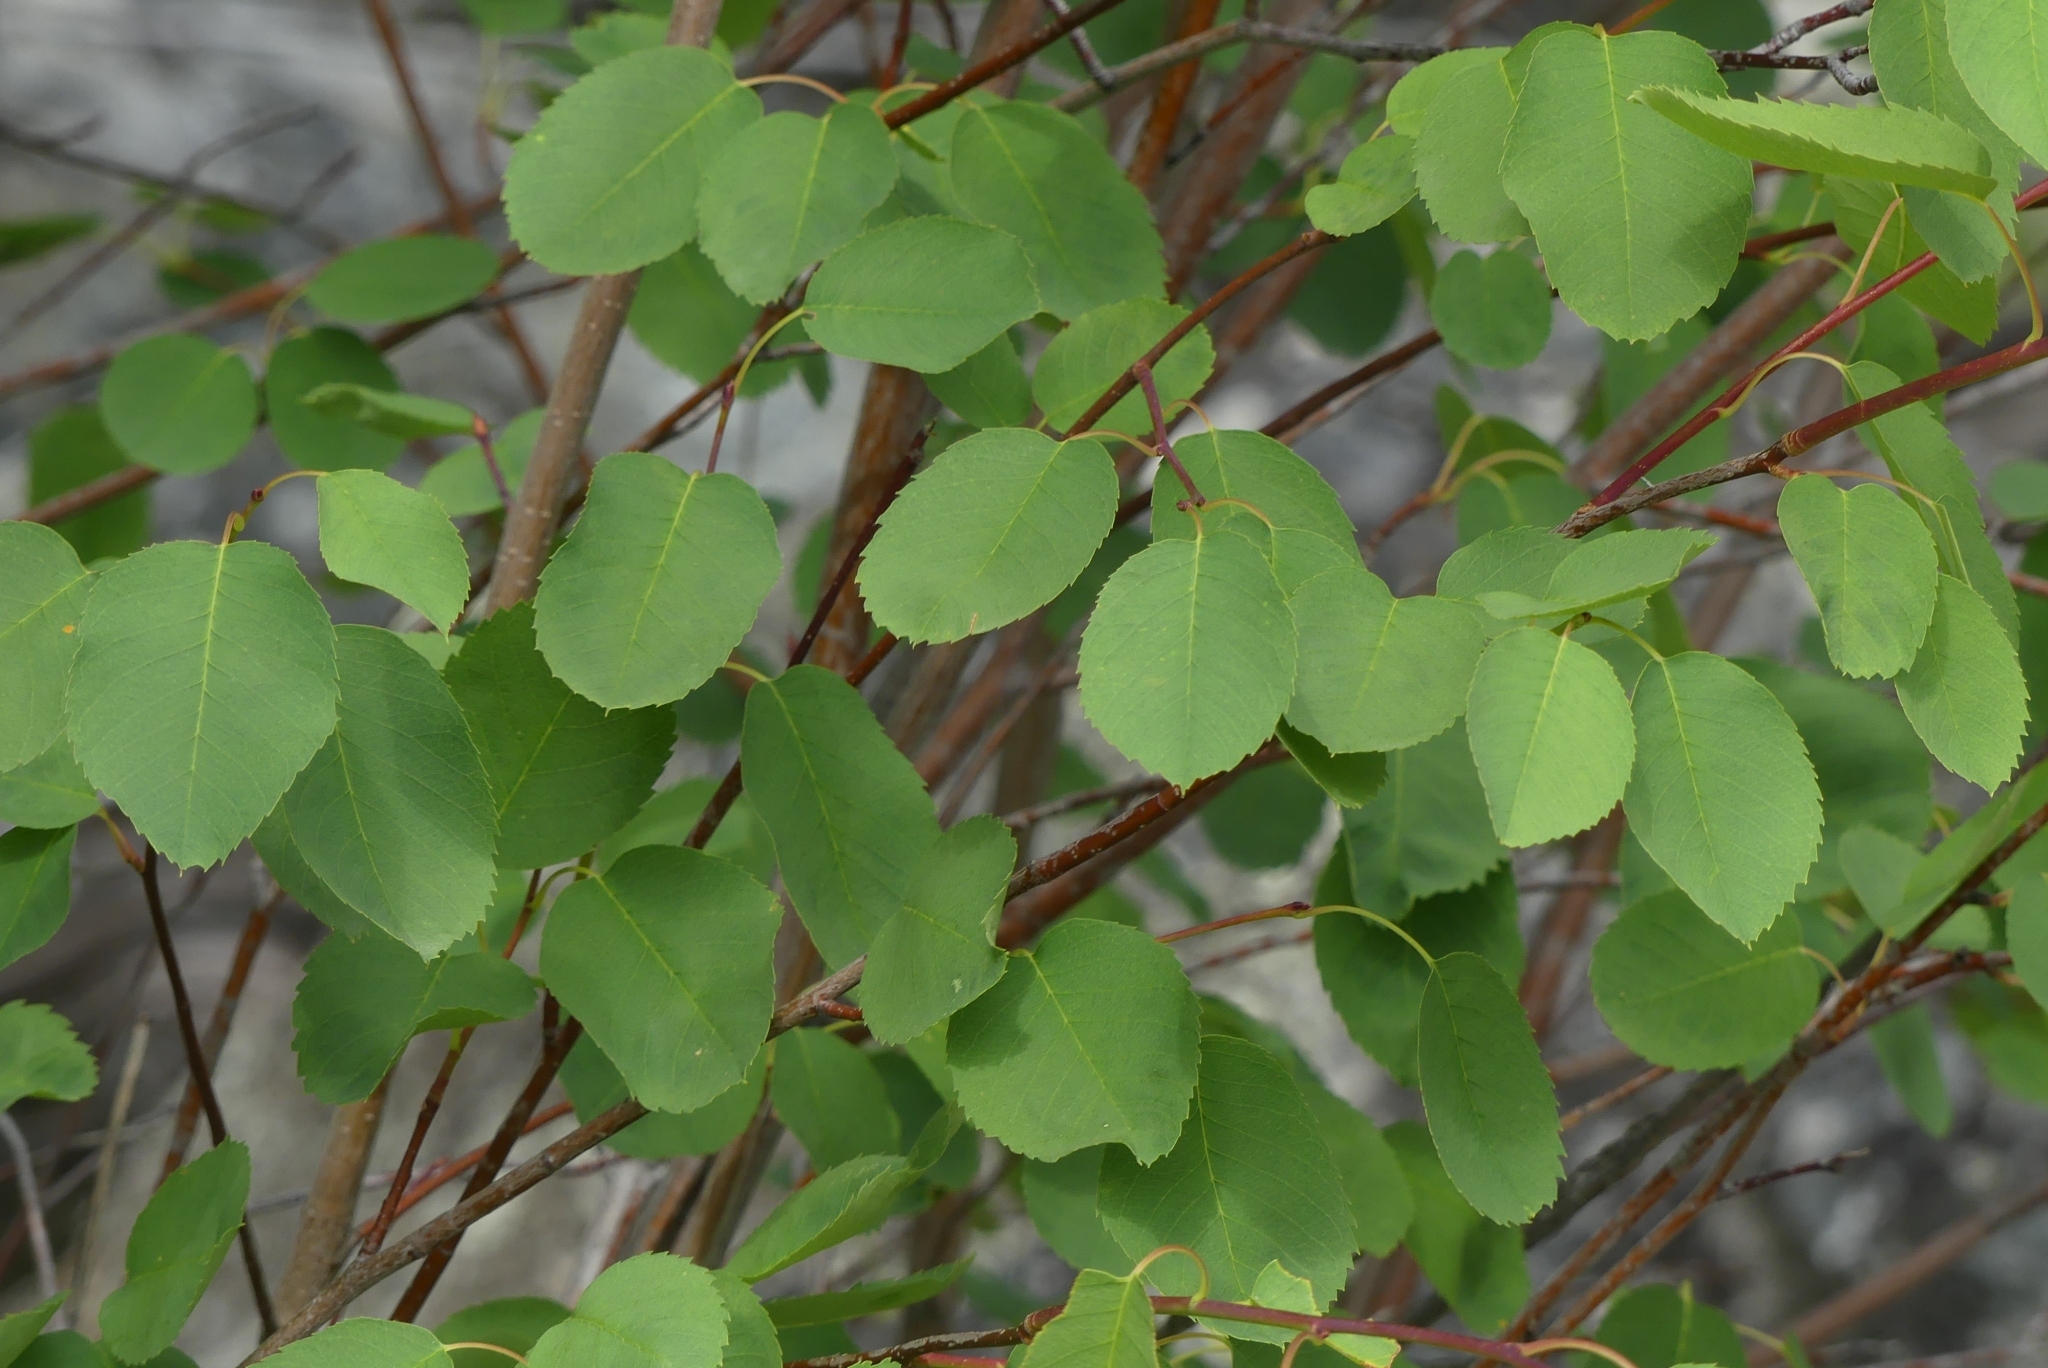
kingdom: Plantae
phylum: Tracheophyta
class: Magnoliopsida
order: Rosales
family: Rosaceae
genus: Amelanchier
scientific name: Amelanchier alnifolia
